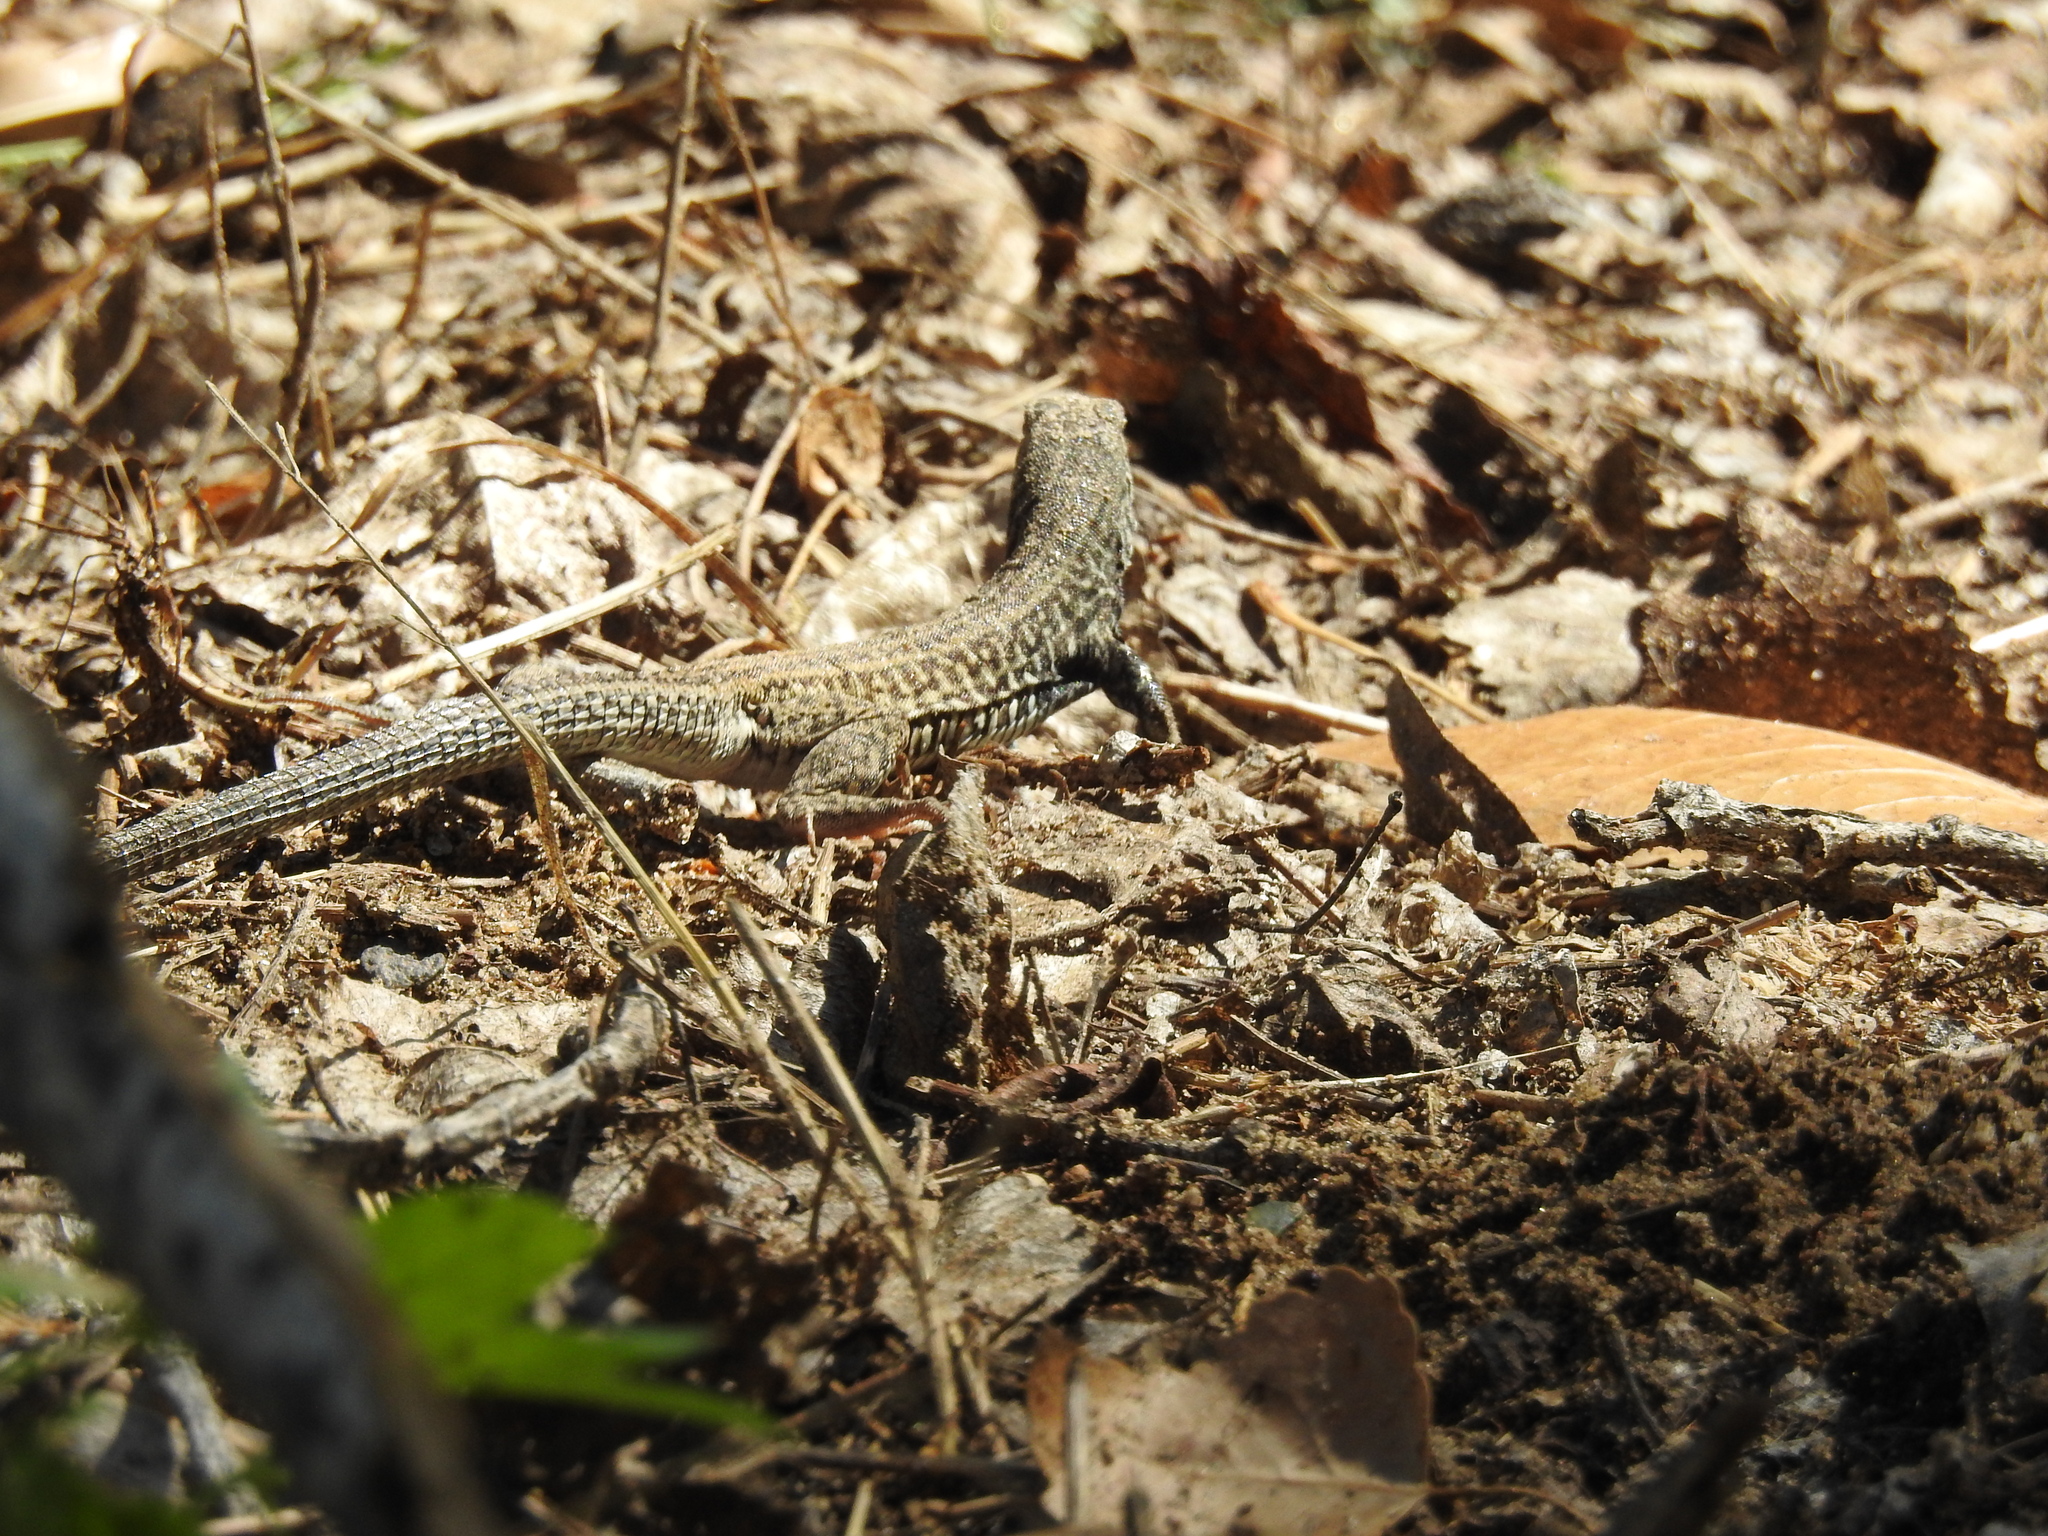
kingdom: Animalia
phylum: Chordata
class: Squamata
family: Teiidae
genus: Aspidoscelis
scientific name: Aspidoscelis tigris
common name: Tiger whiptail
